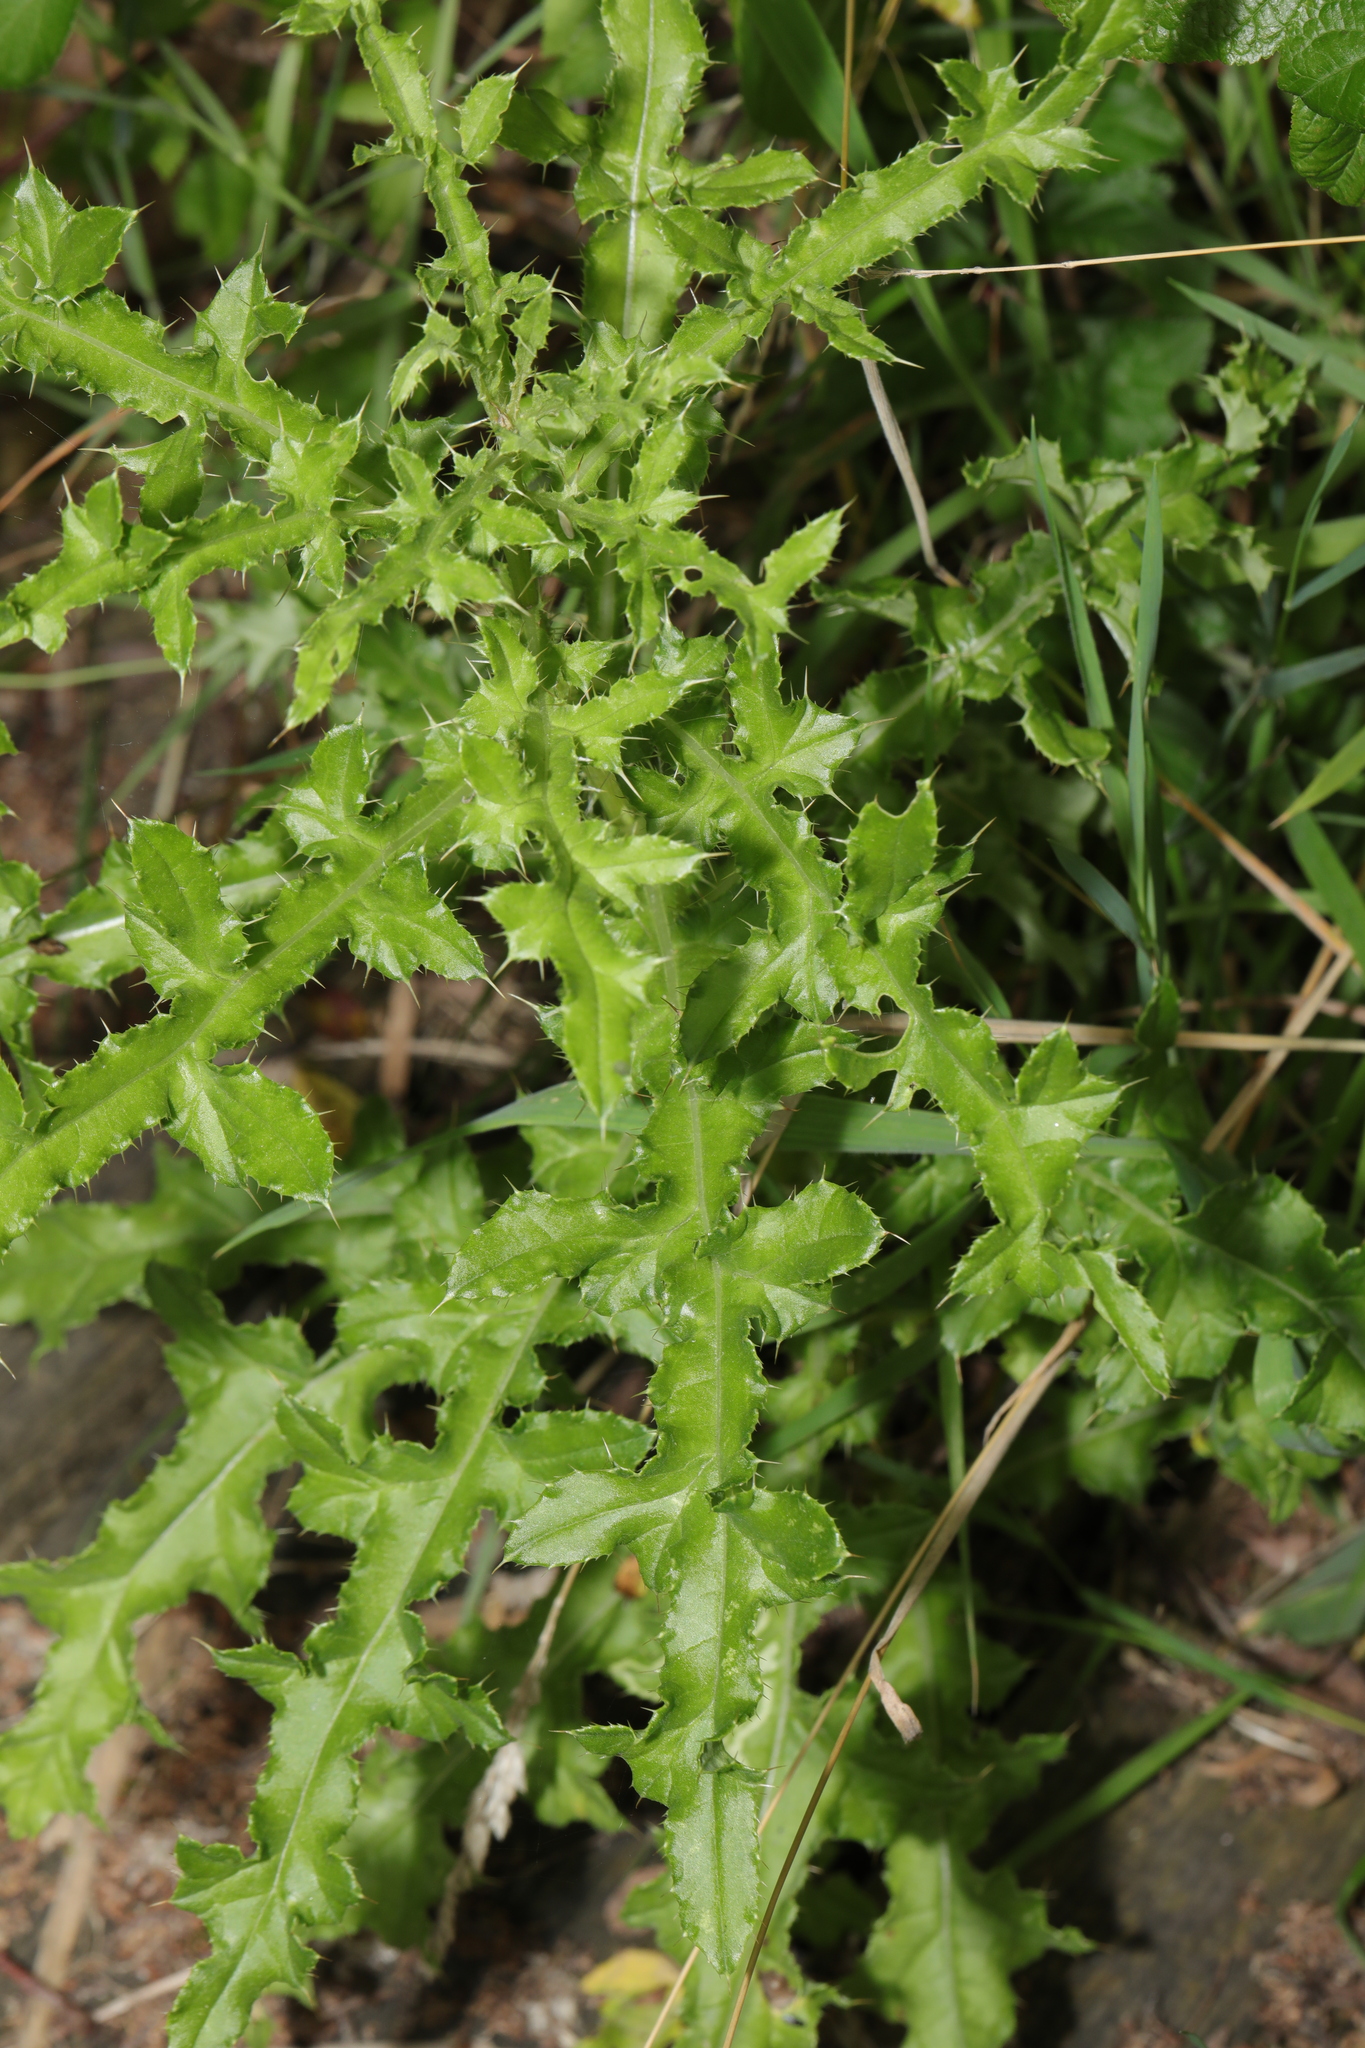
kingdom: Plantae
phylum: Tracheophyta
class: Magnoliopsida
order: Asterales
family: Asteraceae
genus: Cirsium
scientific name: Cirsium arvense
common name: Creeping thistle
